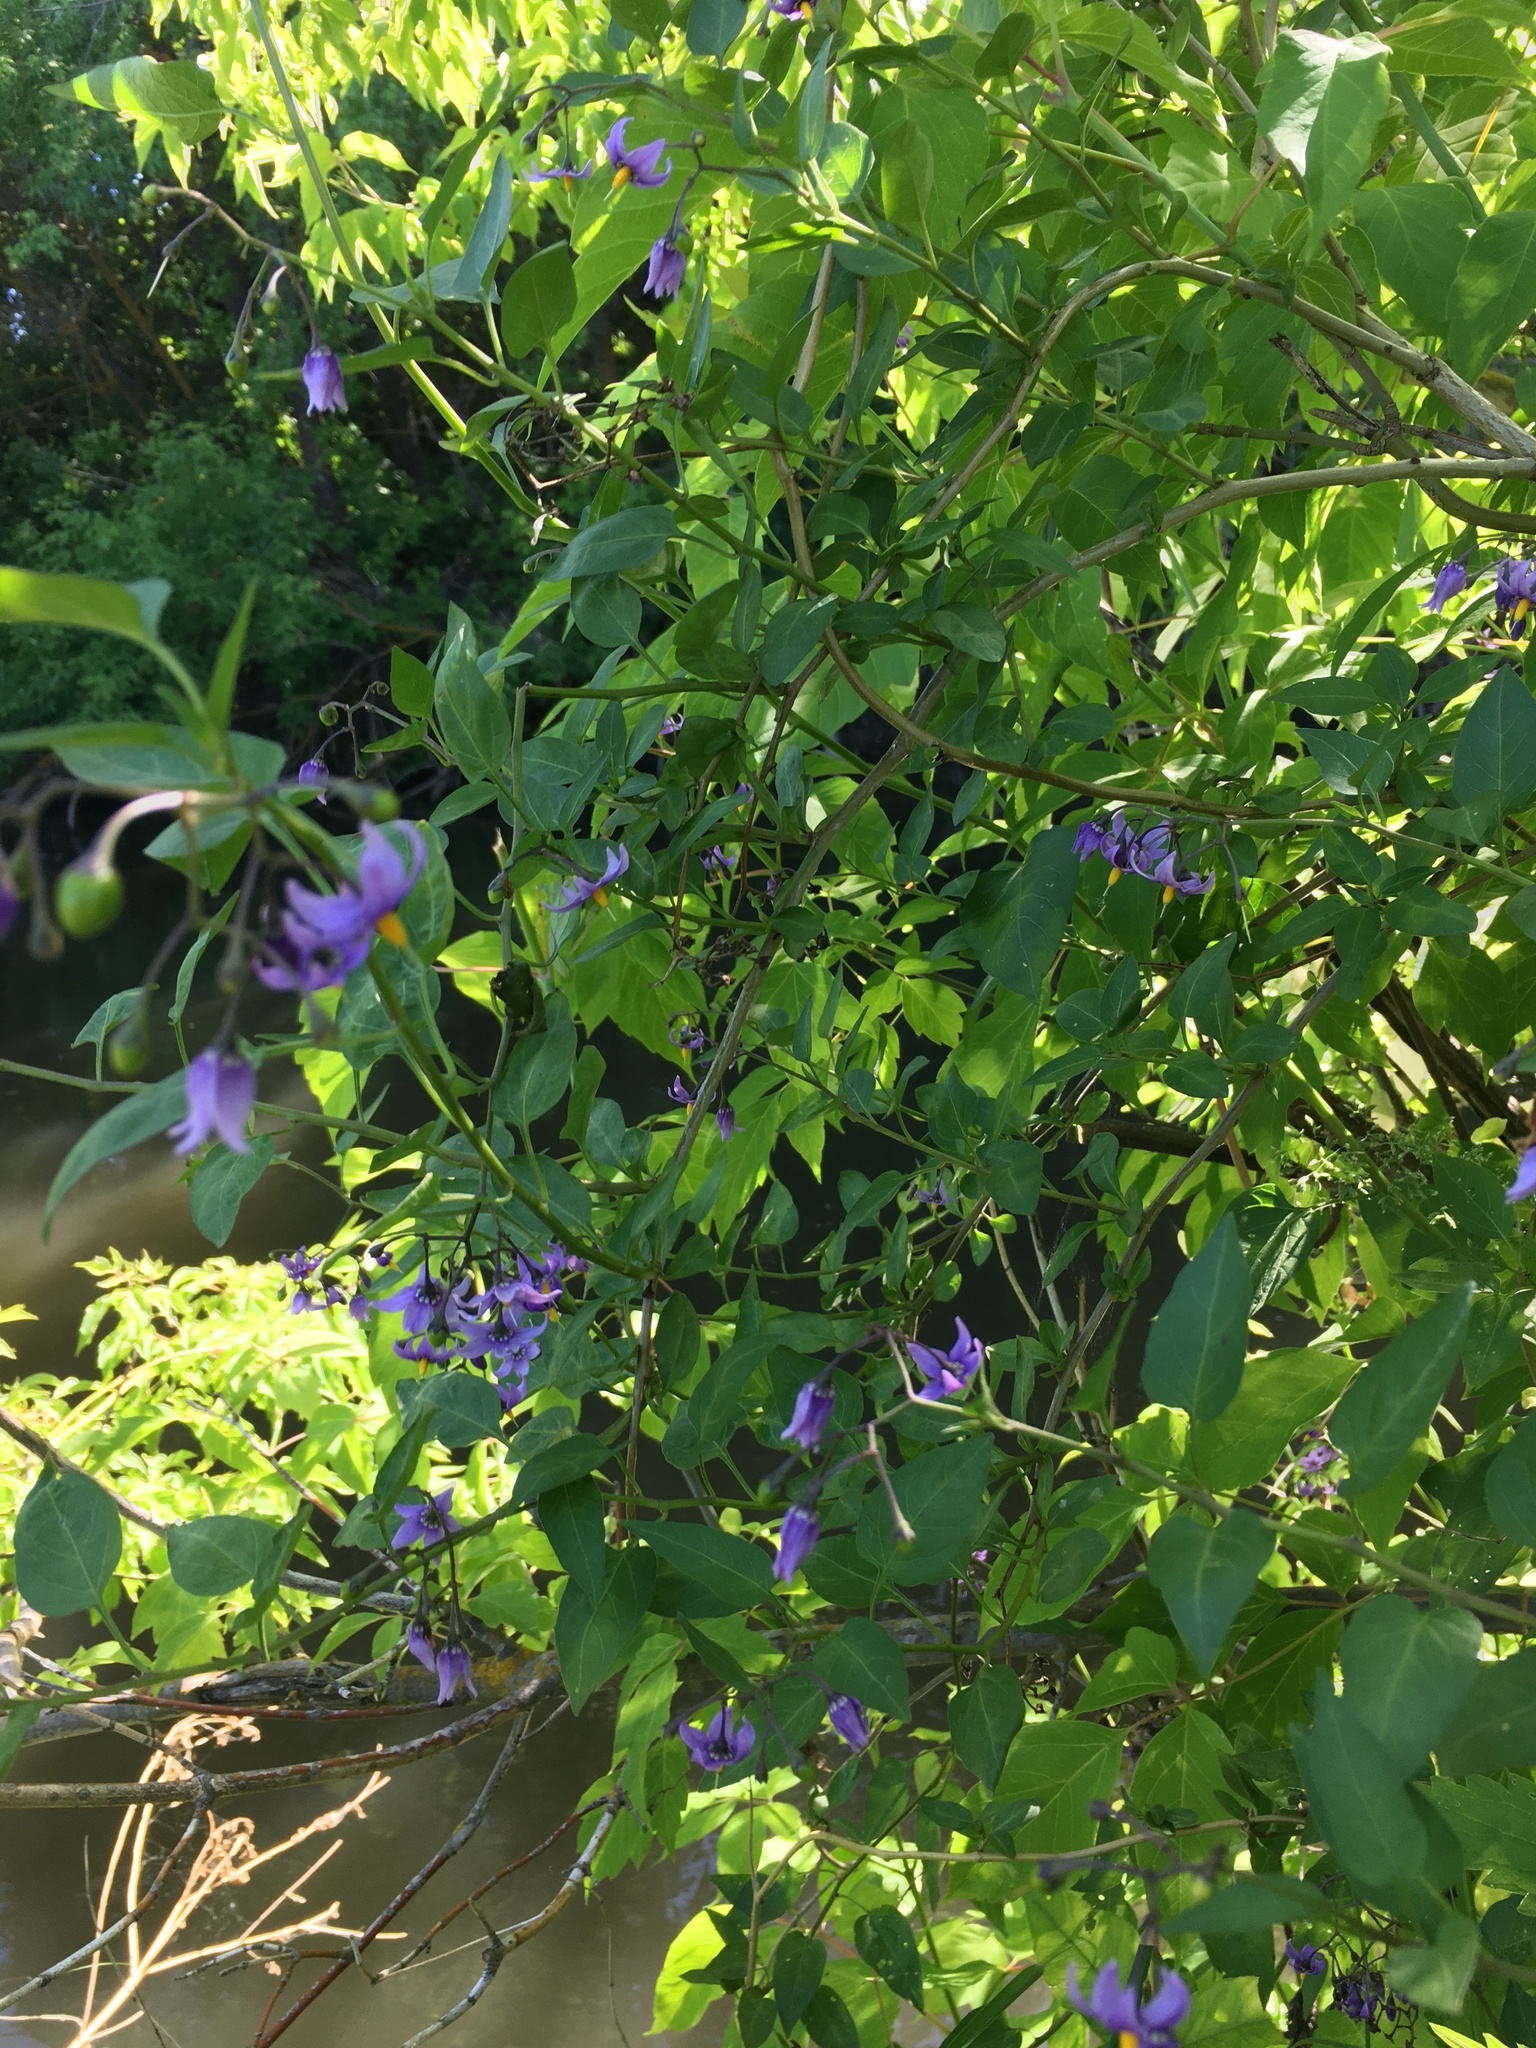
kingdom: Plantae
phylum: Tracheophyta
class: Magnoliopsida
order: Solanales
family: Solanaceae
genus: Solanum
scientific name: Solanum dulcamara
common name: Climbing nightshade
